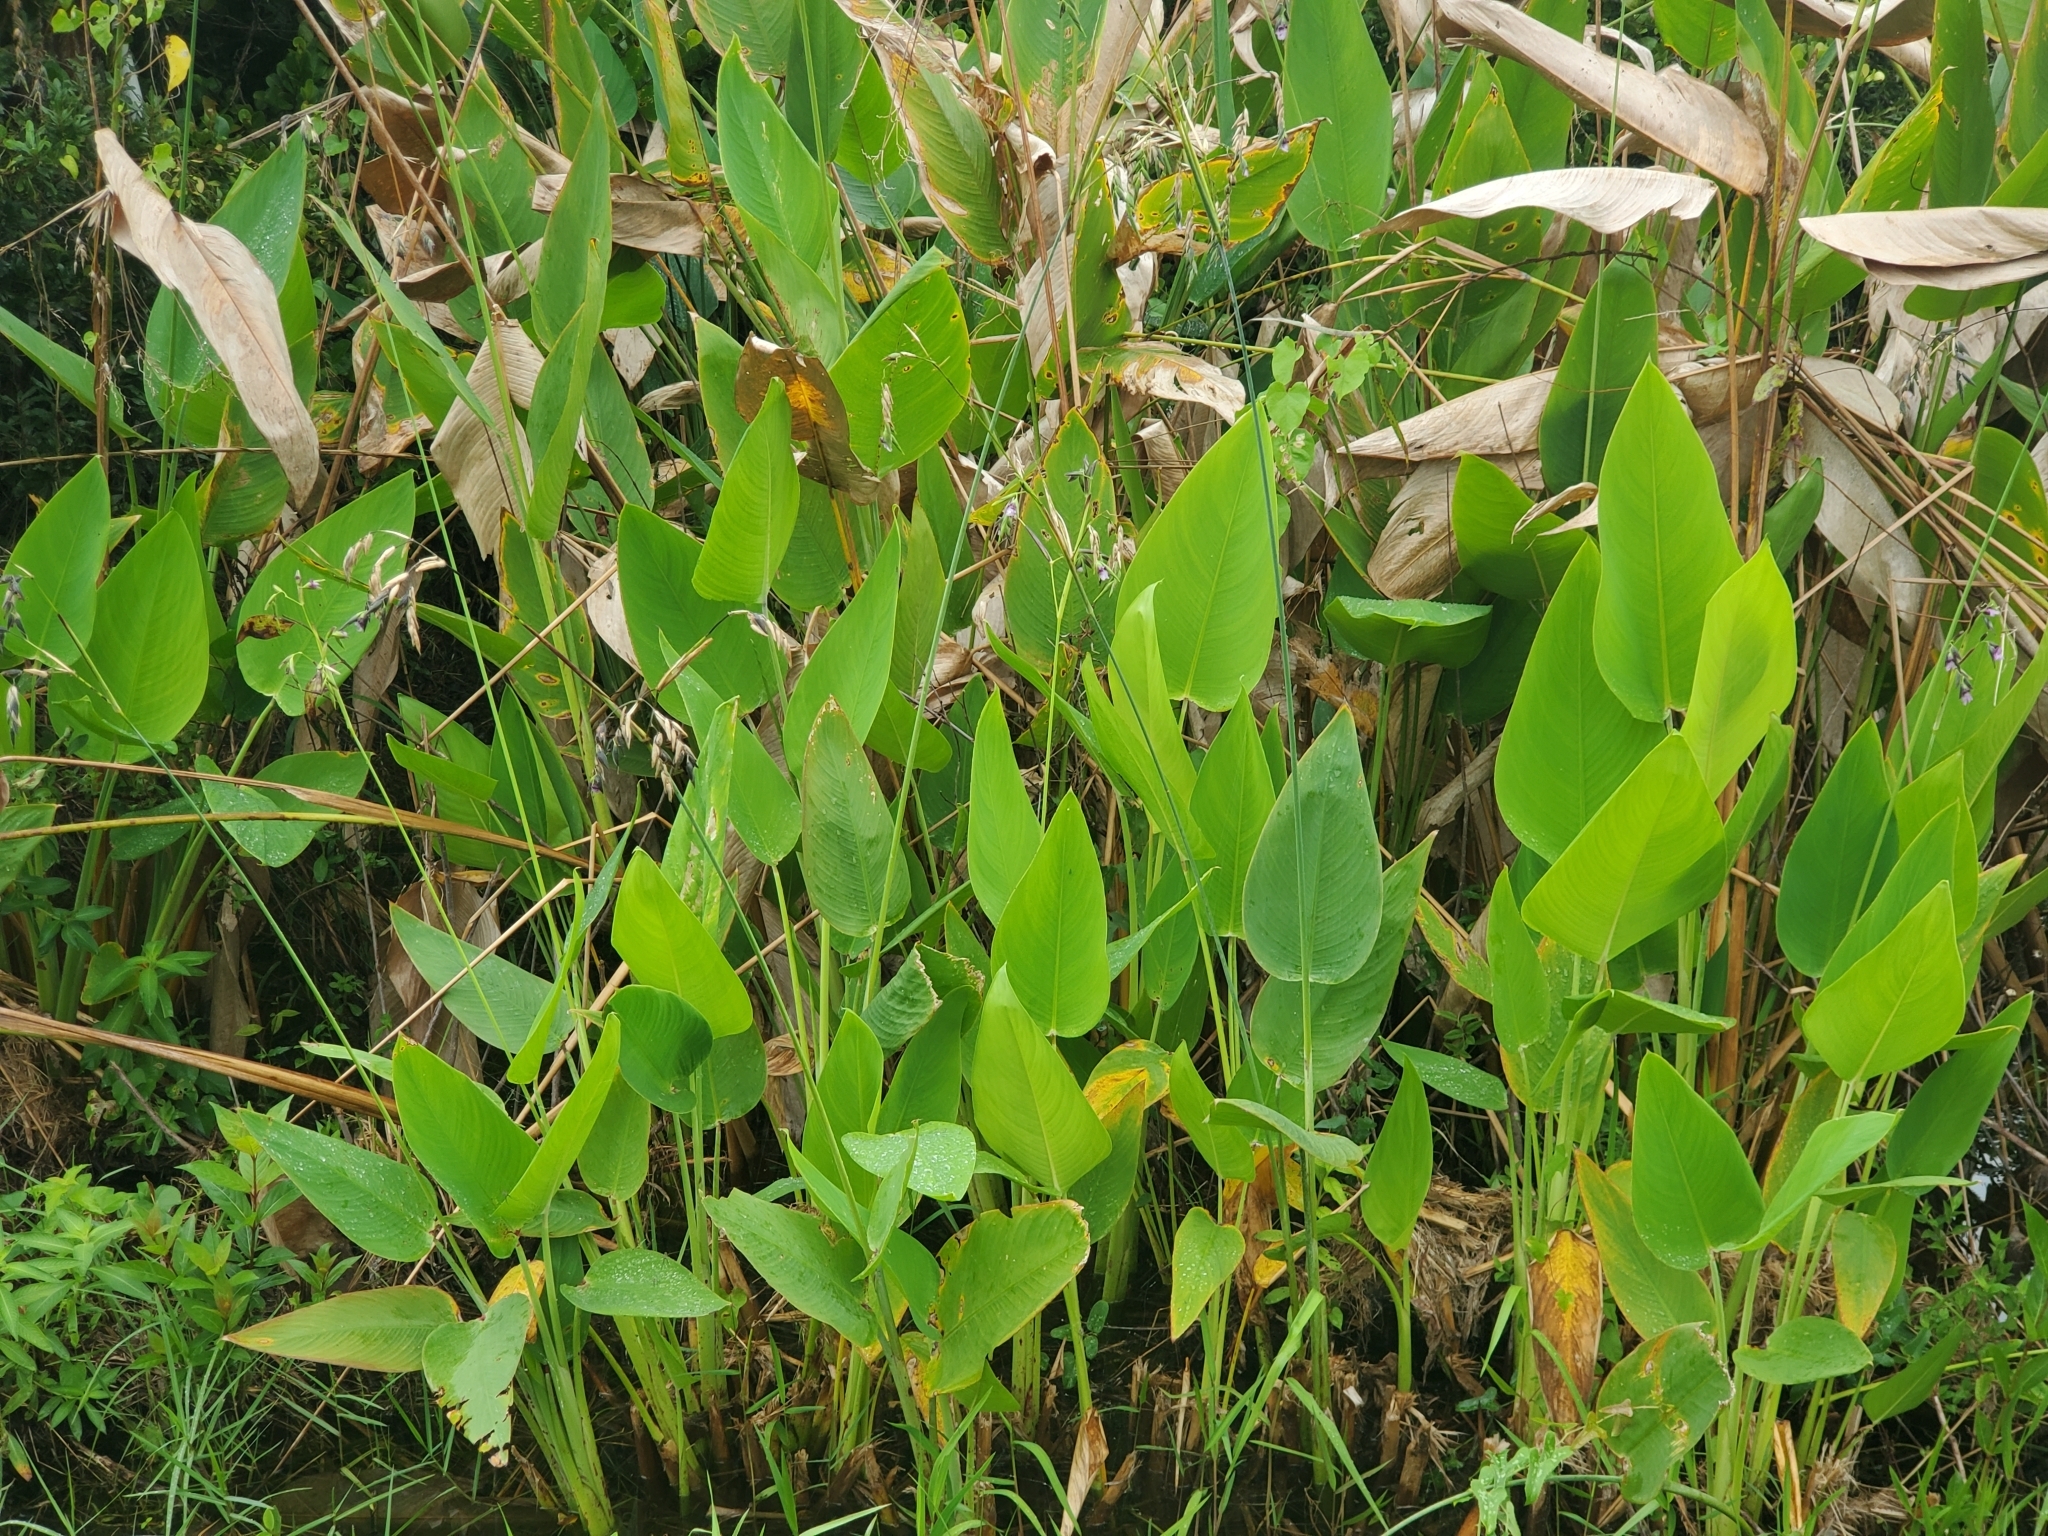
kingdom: Plantae
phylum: Tracheophyta
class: Liliopsida
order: Zingiberales
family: Marantaceae
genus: Thalia
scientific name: Thalia geniculata
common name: Arrowroot
